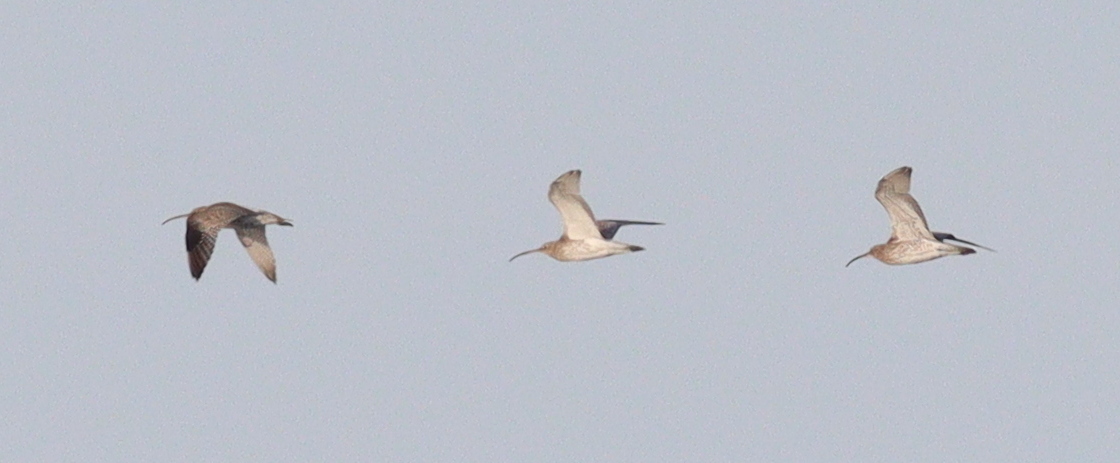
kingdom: Animalia
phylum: Chordata
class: Aves
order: Charadriiformes
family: Scolopacidae
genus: Numenius
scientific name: Numenius arquata
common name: Eurasian curlew
